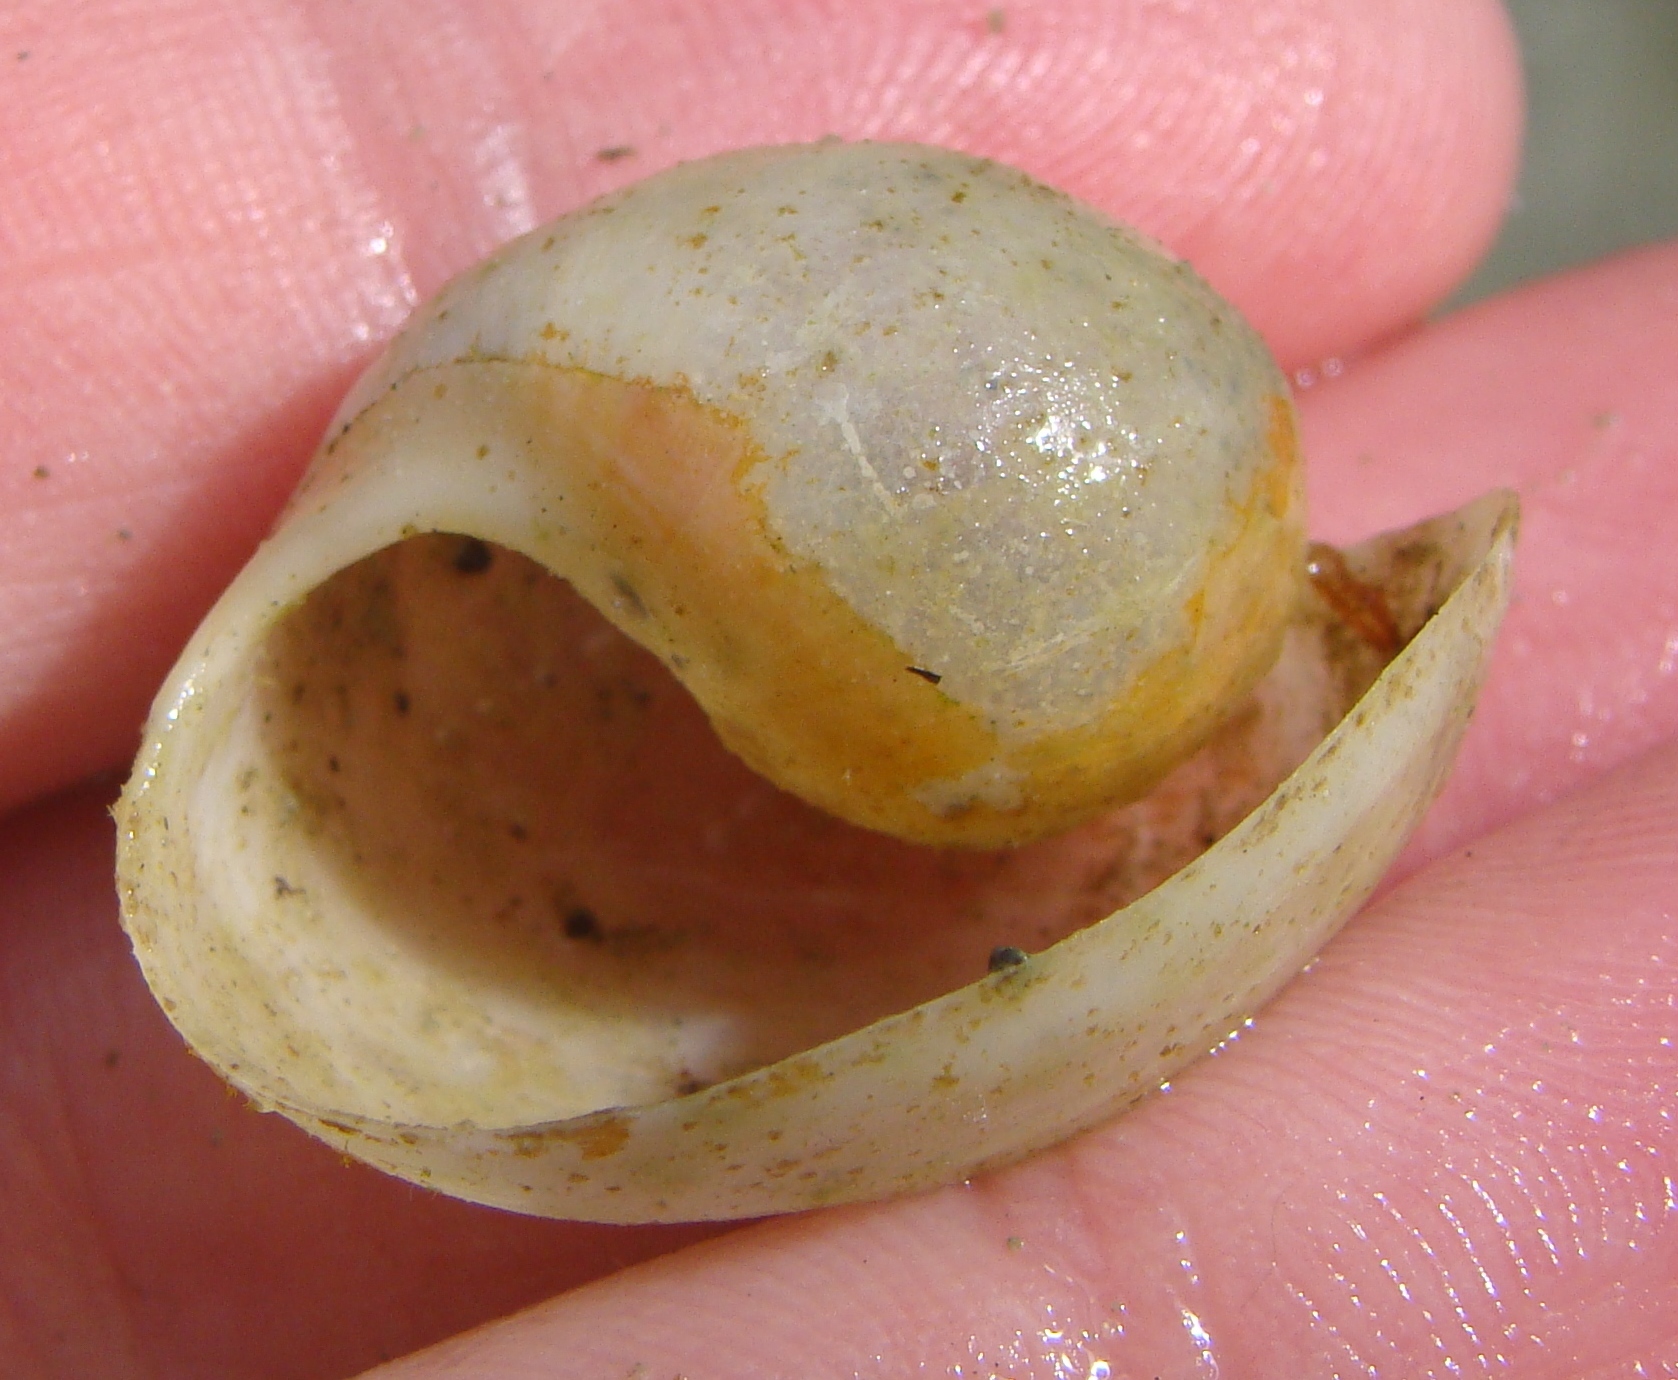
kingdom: Animalia
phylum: Mollusca
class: Gastropoda
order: Cephalaspidea
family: Haminoeidae
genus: Papawera
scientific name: Papawera zelandiae
